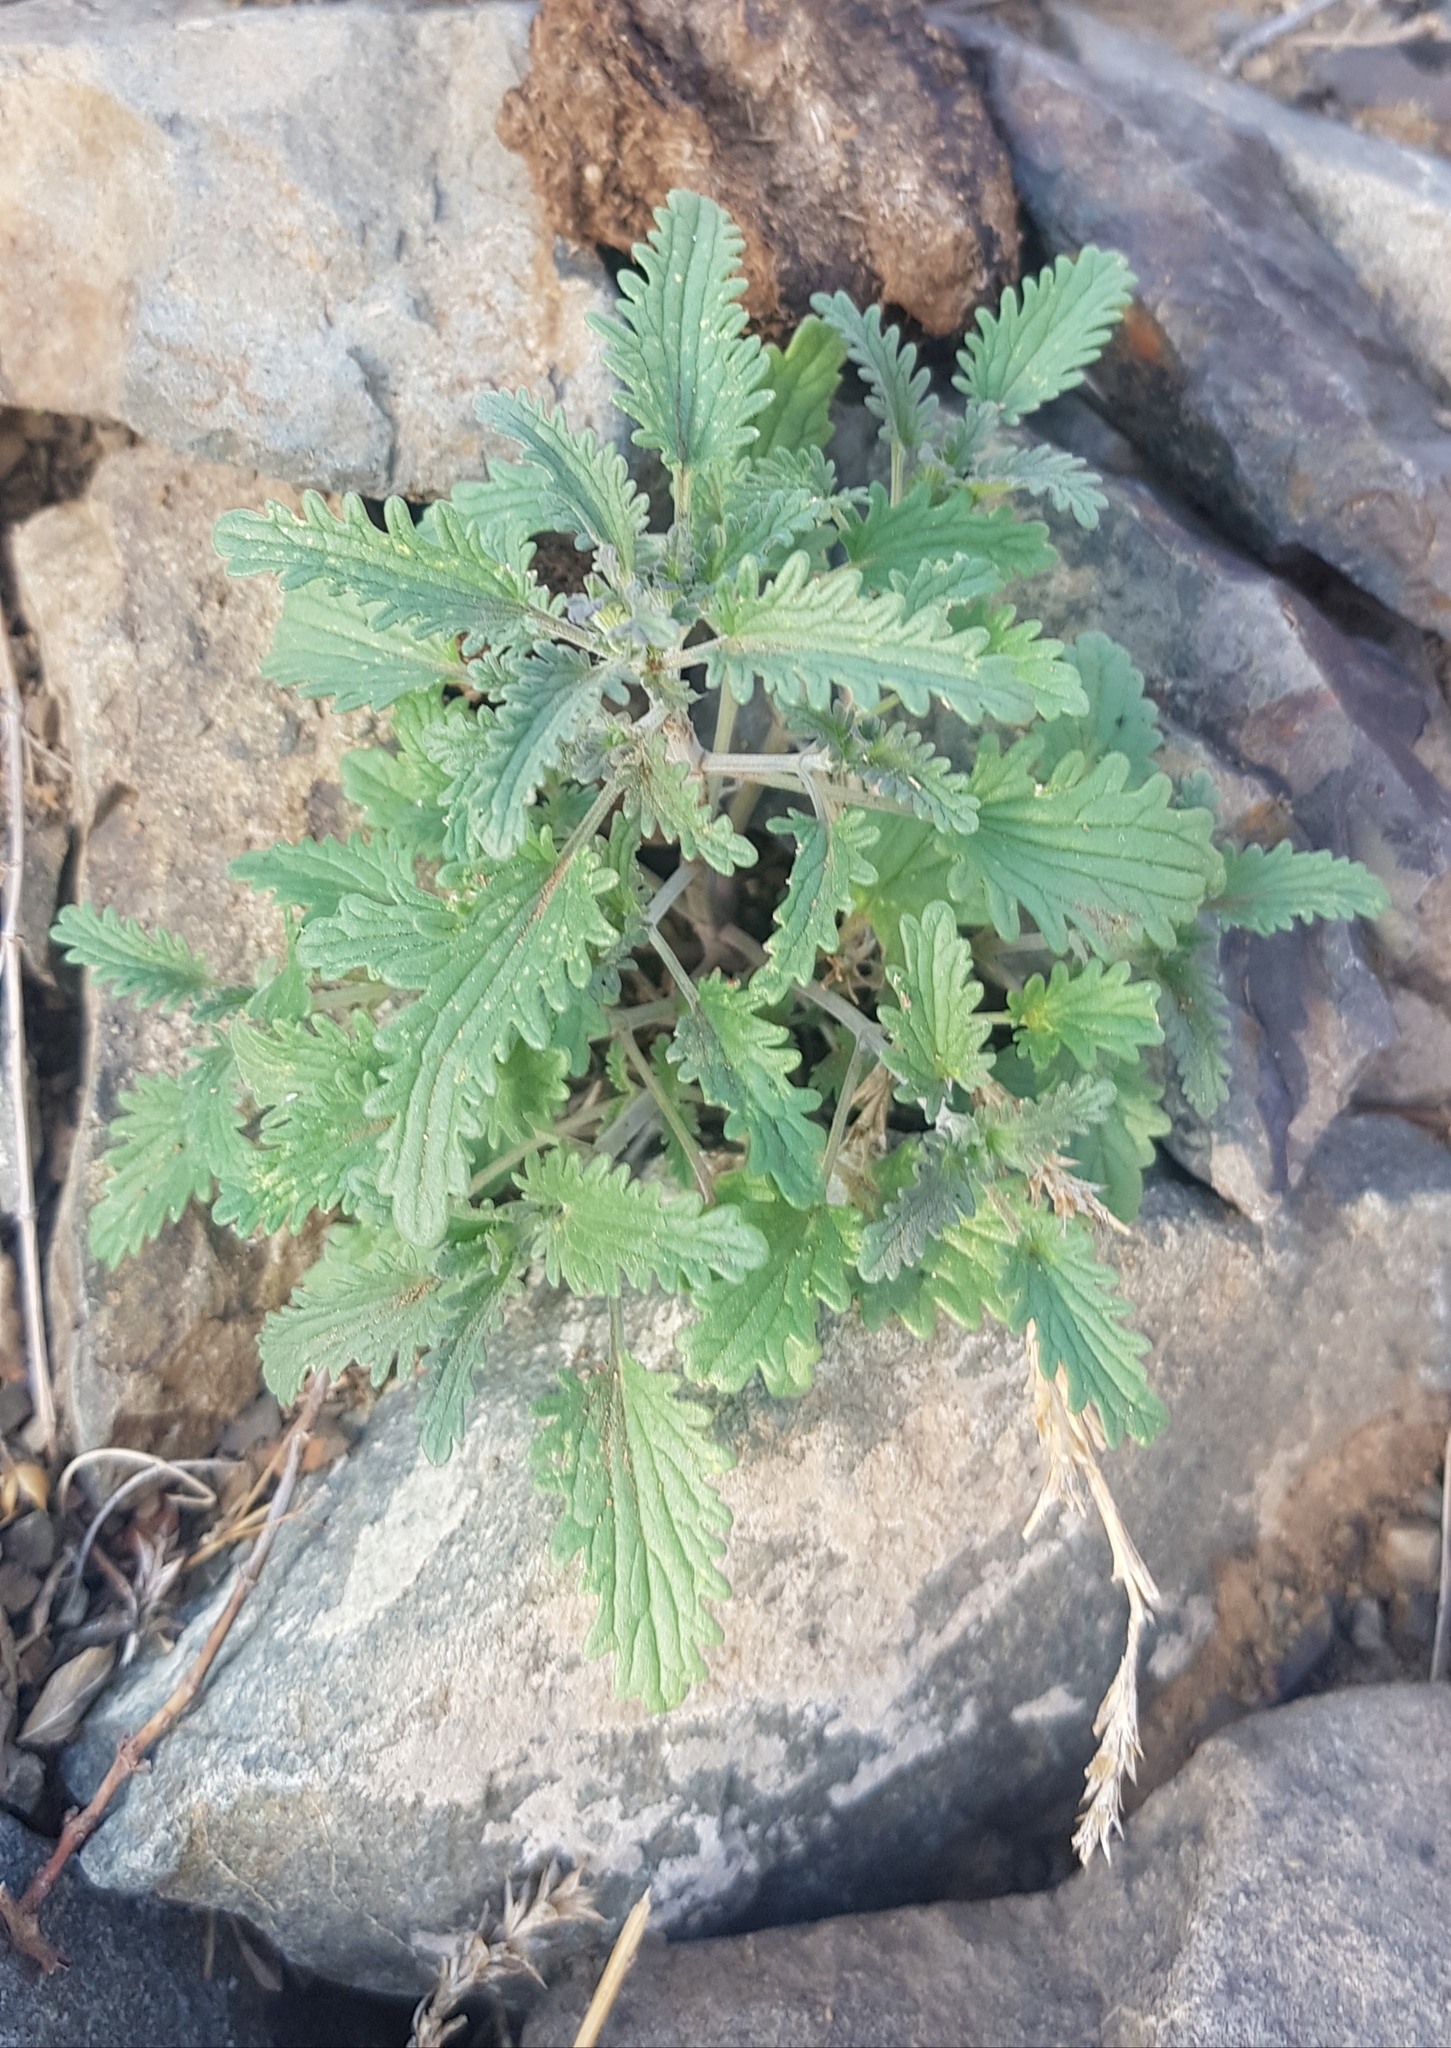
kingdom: Plantae
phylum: Tracheophyta
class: Magnoliopsida
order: Lamiales
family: Lamiaceae
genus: Dracocephalum
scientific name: Dracocephalum foetidum
